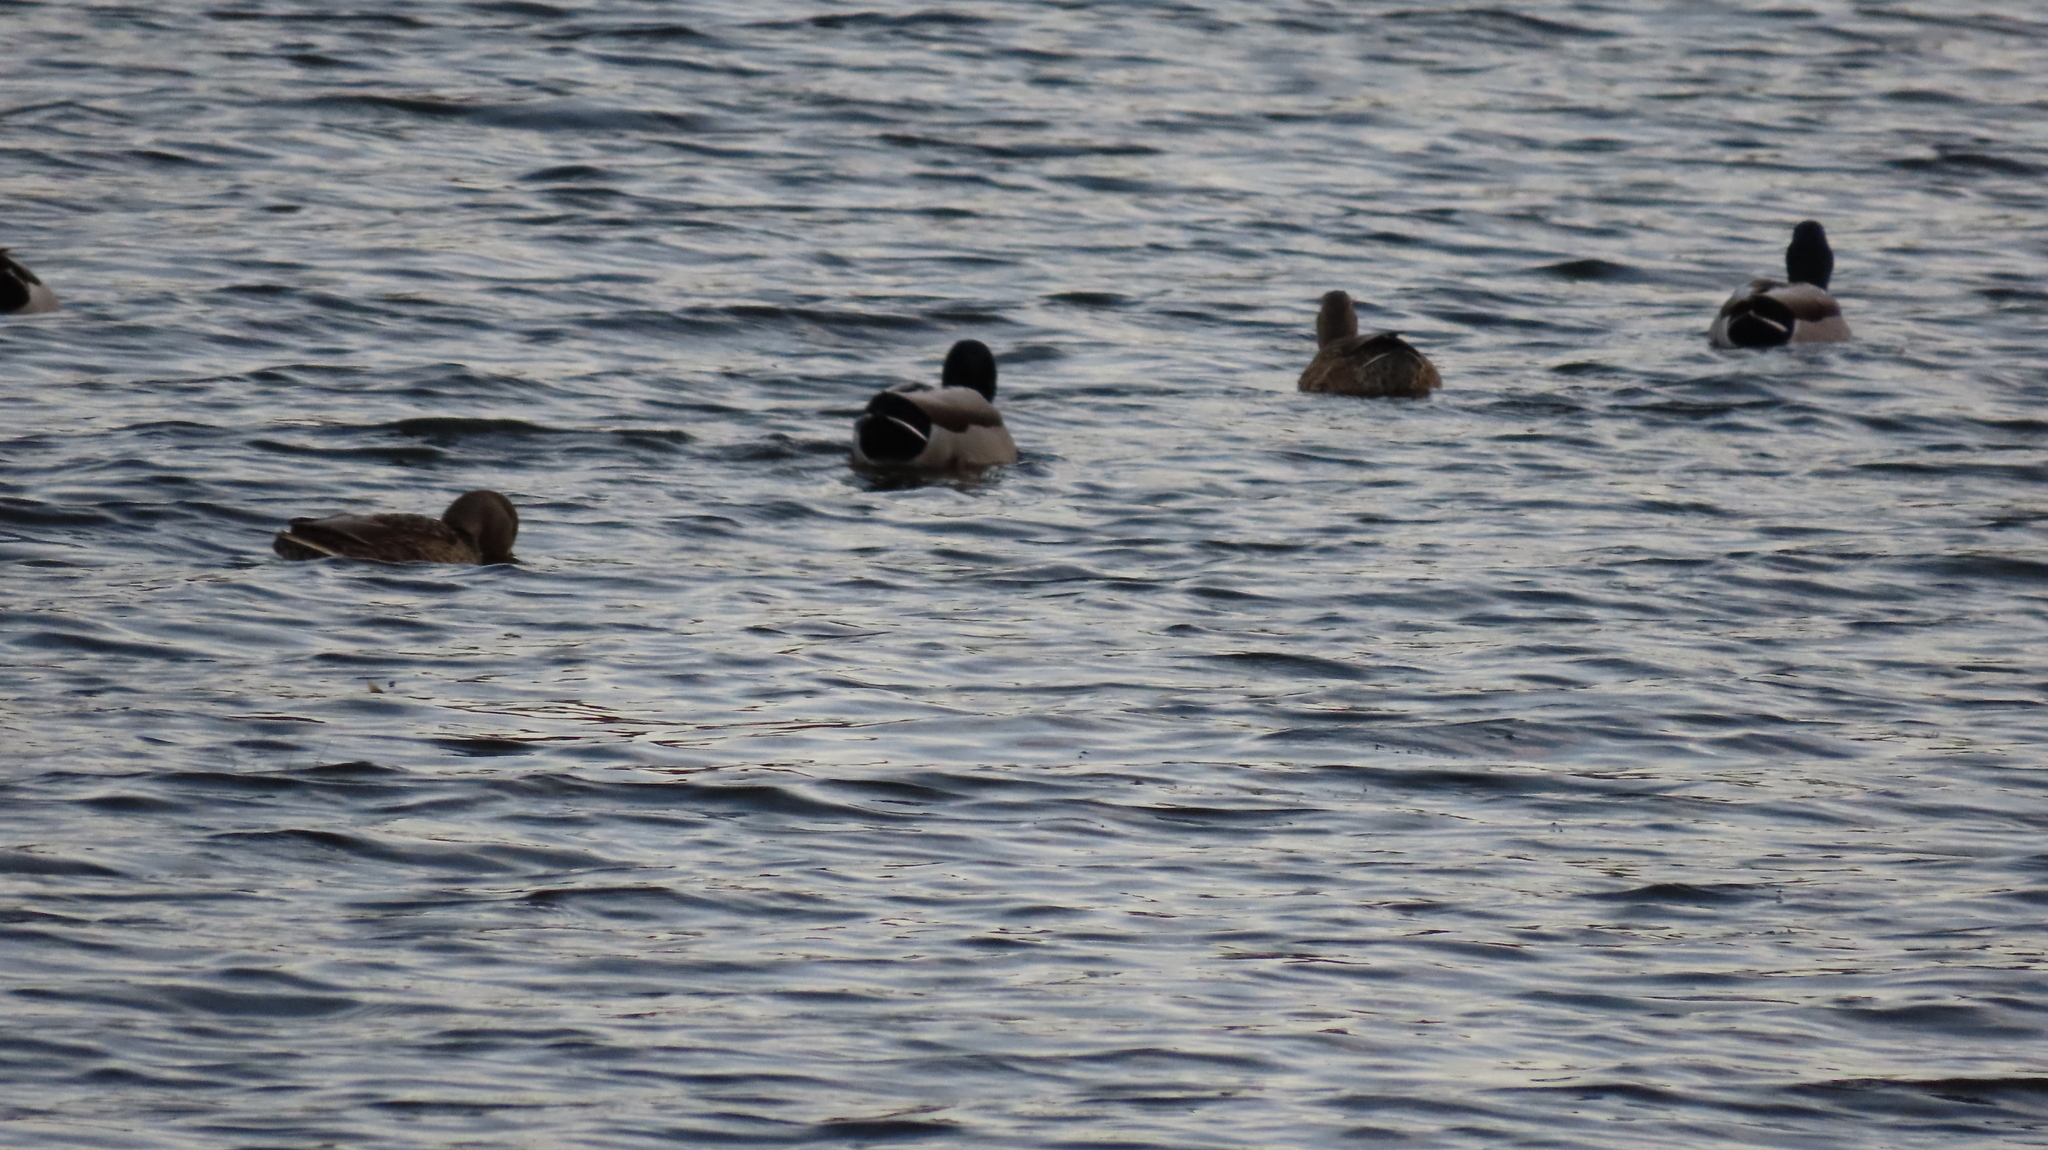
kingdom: Animalia
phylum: Chordata
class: Aves
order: Anseriformes
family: Anatidae
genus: Anas
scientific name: Anas platyrhynchos
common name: Mallard
